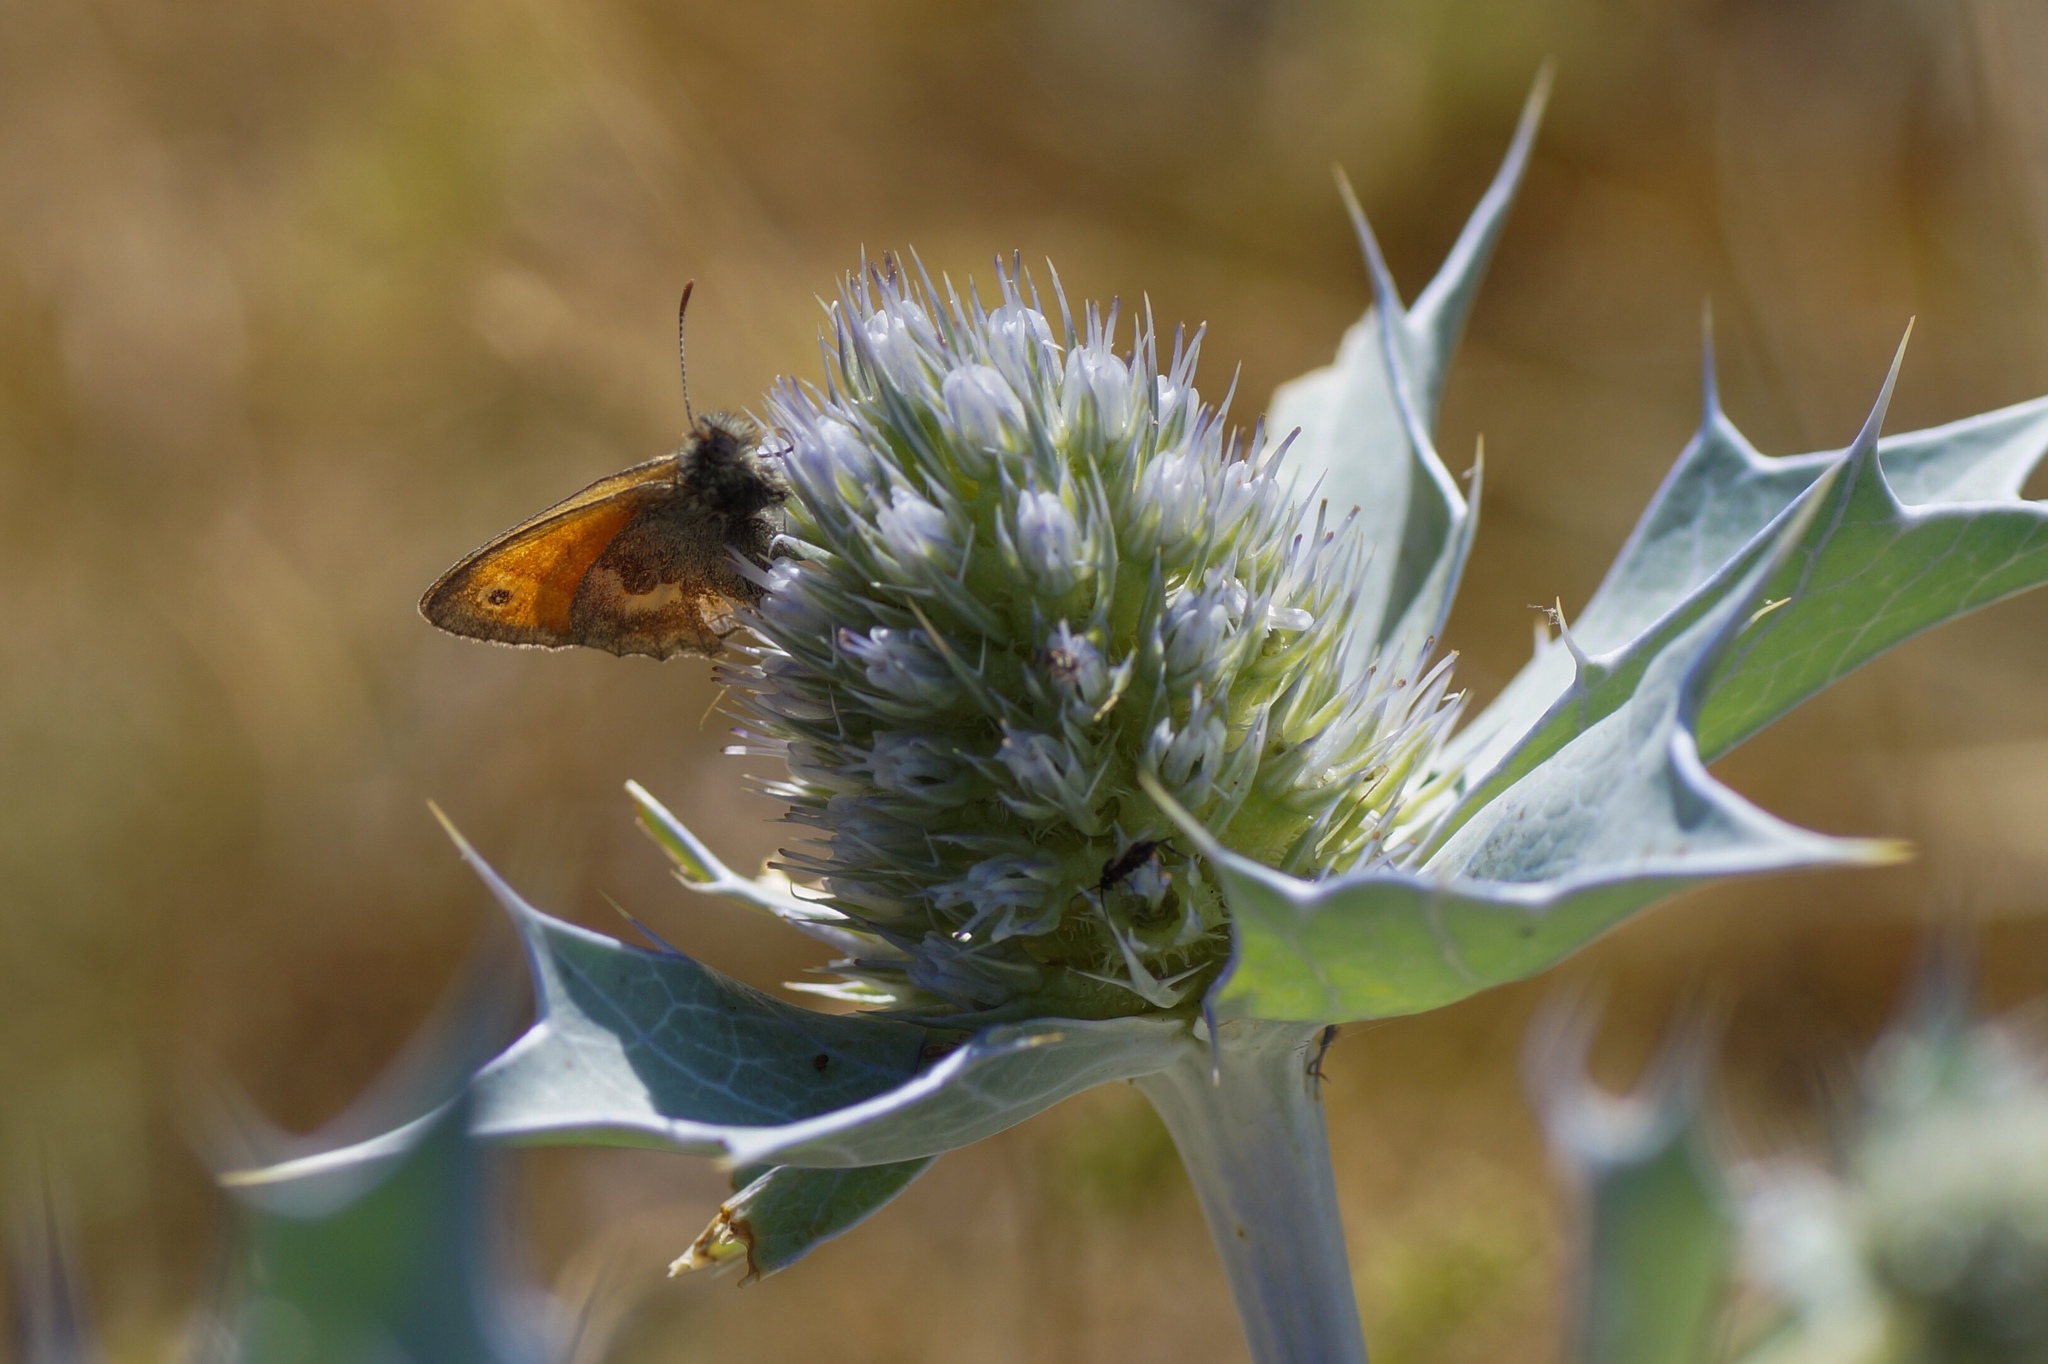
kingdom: Animalia
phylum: Arthropoda
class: Insecta
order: Lepidoptera
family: Nymphalidae
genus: Coenonympha
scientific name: Coenonympha pamphilus
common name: Small heath
